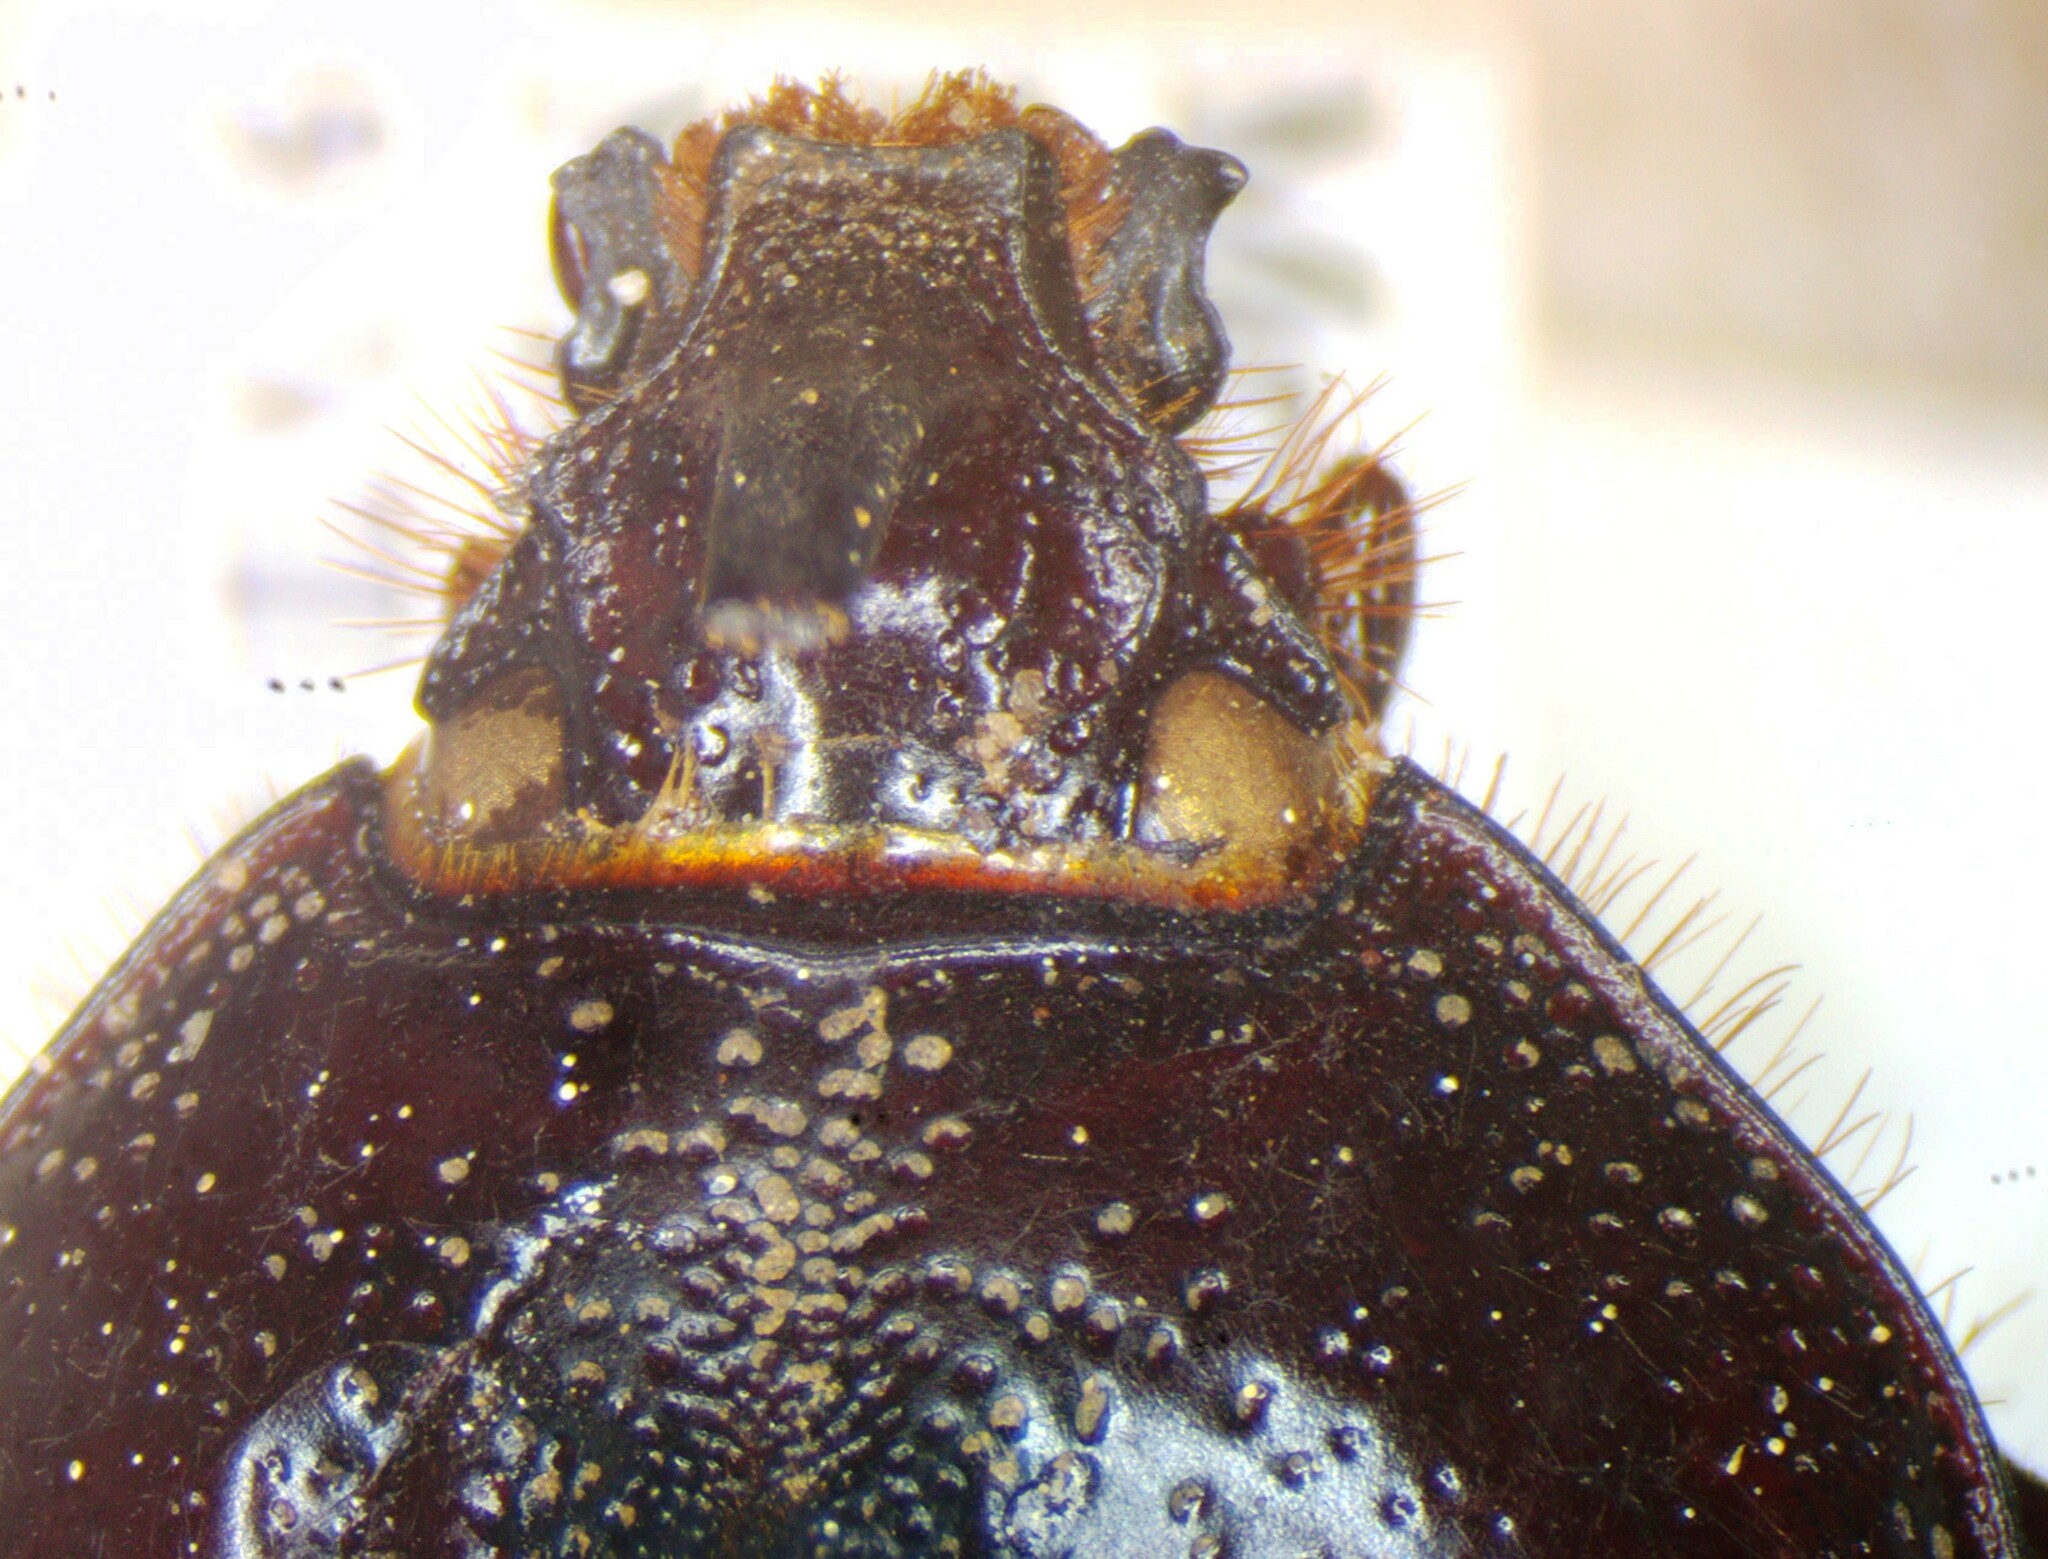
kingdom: Animalia
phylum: Arthropoda
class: Insecta
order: Coleoptera
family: Scarabaeidae
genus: Golofa
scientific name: Golofa pusilla
